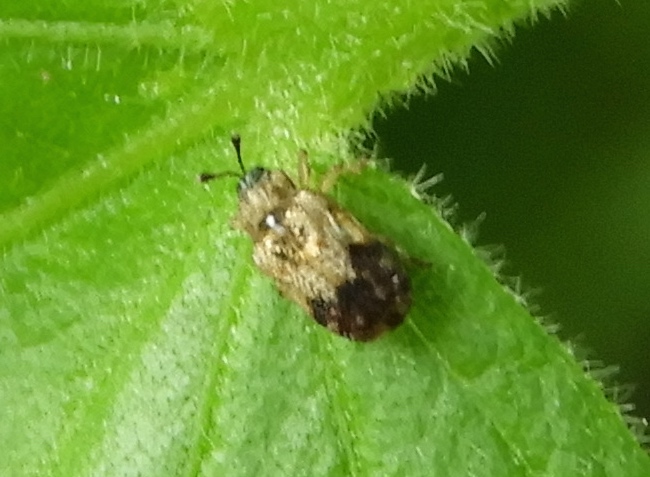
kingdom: Animalia
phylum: Arthropoda
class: Insecta
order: Coleoptera
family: Chrysomelidae
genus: Brachycoryna
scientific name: Brachycoryna pumila
